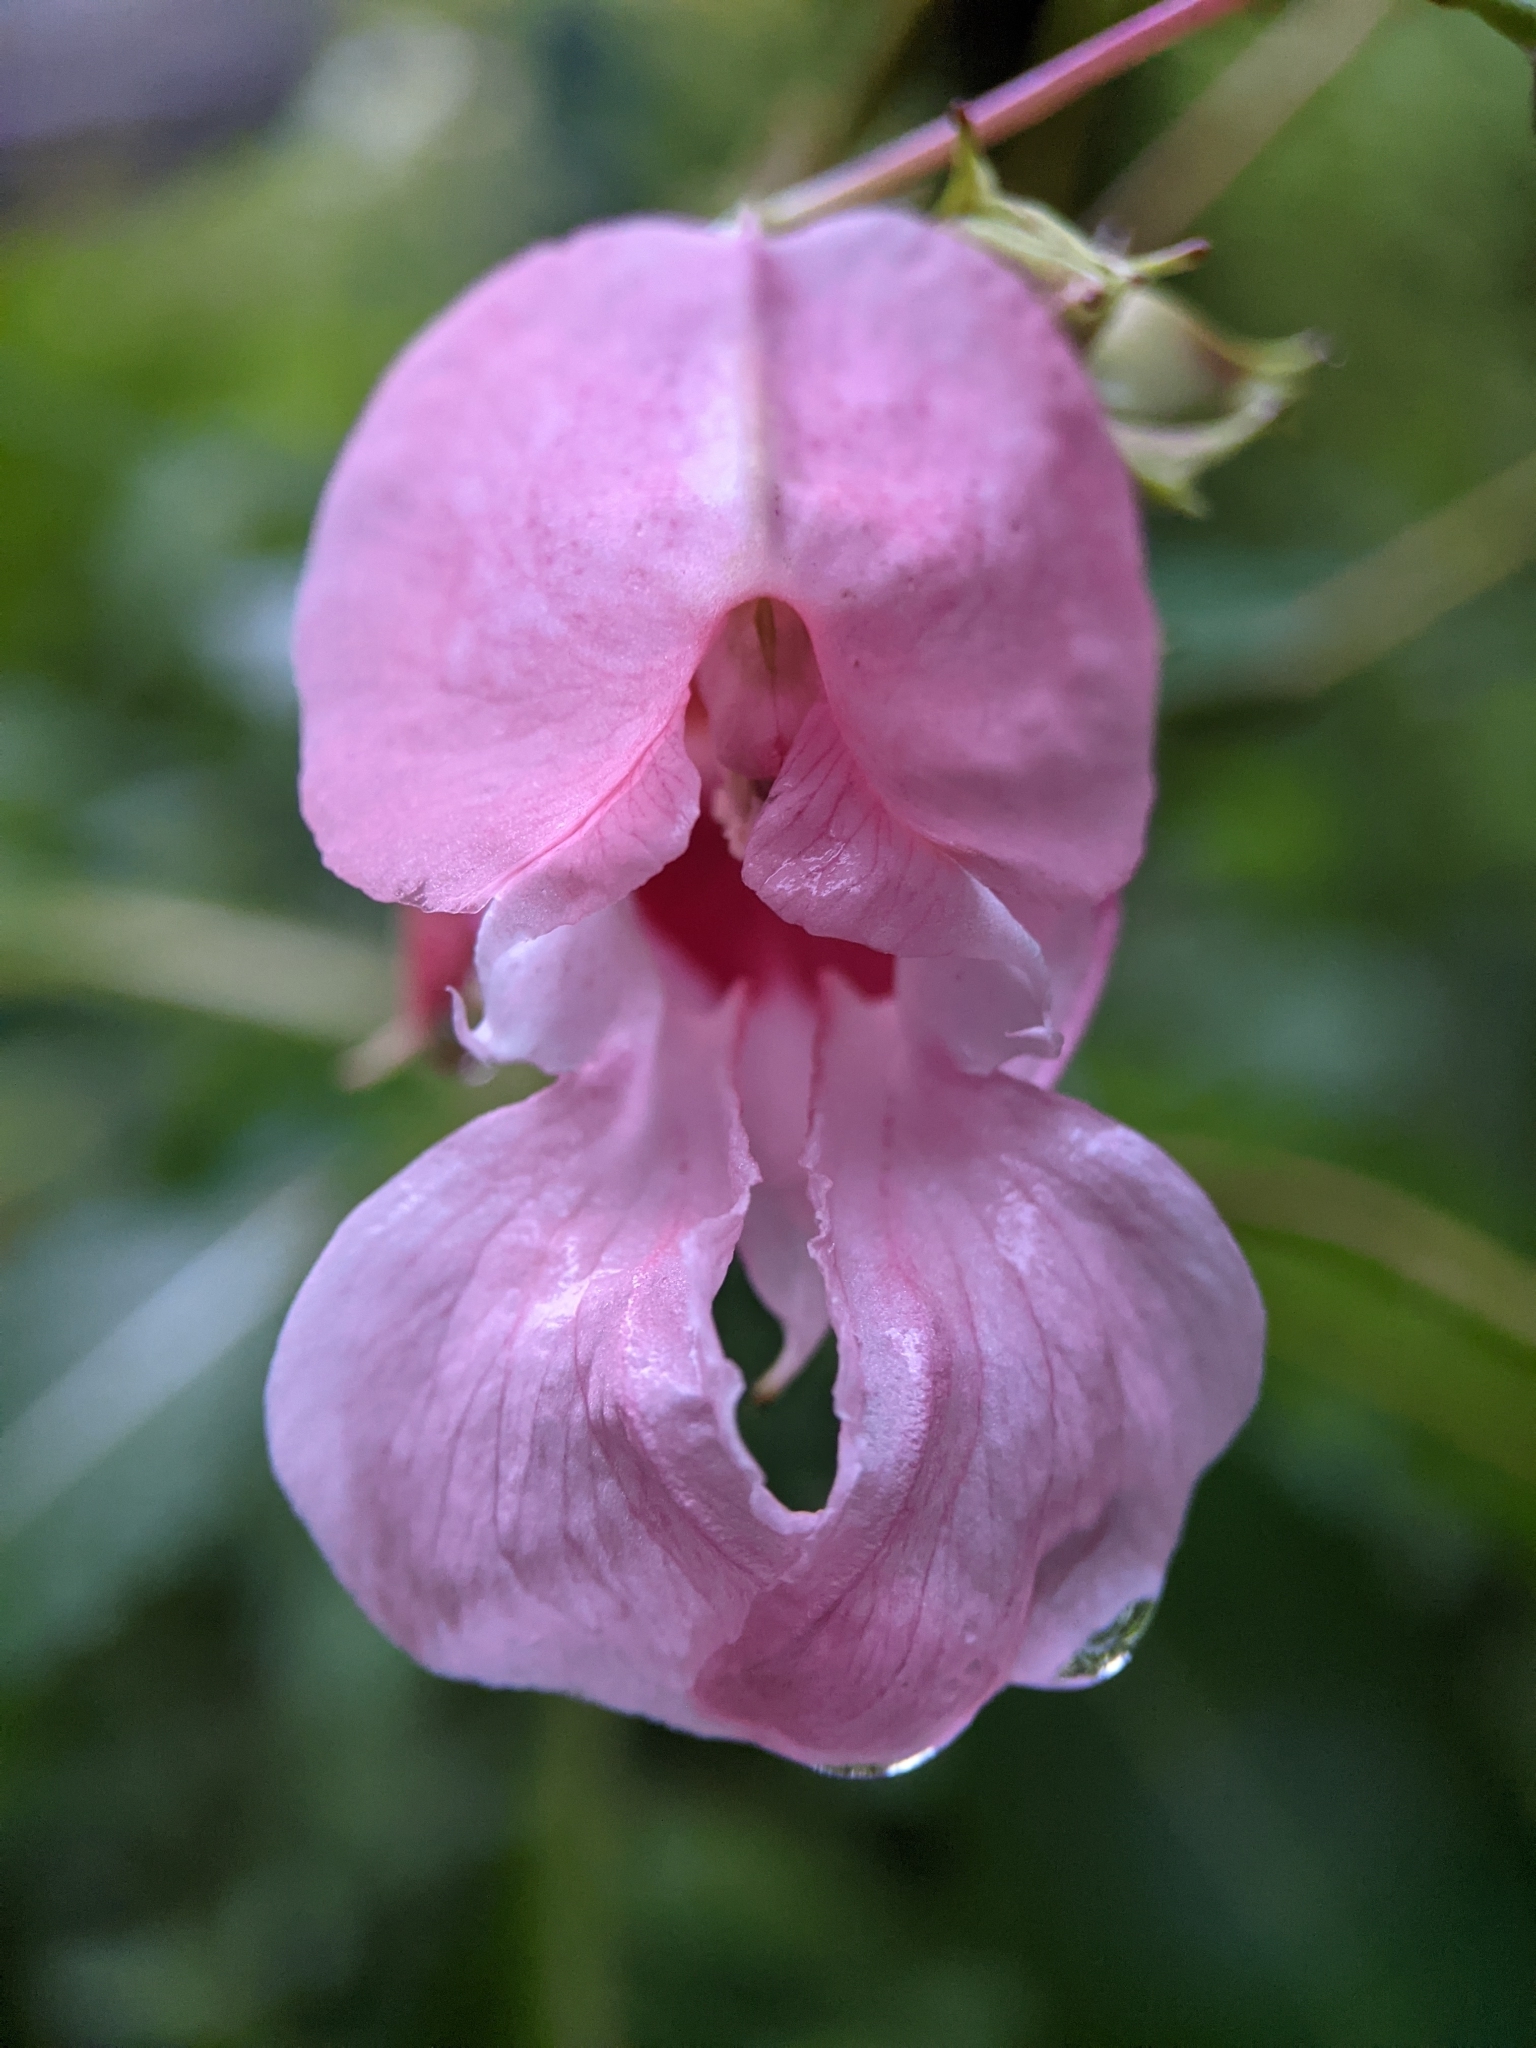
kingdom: Plantae
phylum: Tracheophyta
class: Magnoliopsida
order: Ericales
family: Balsaminaceae
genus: Impatiens
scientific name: Impatiens glandulifera
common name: Himalayan balsam
